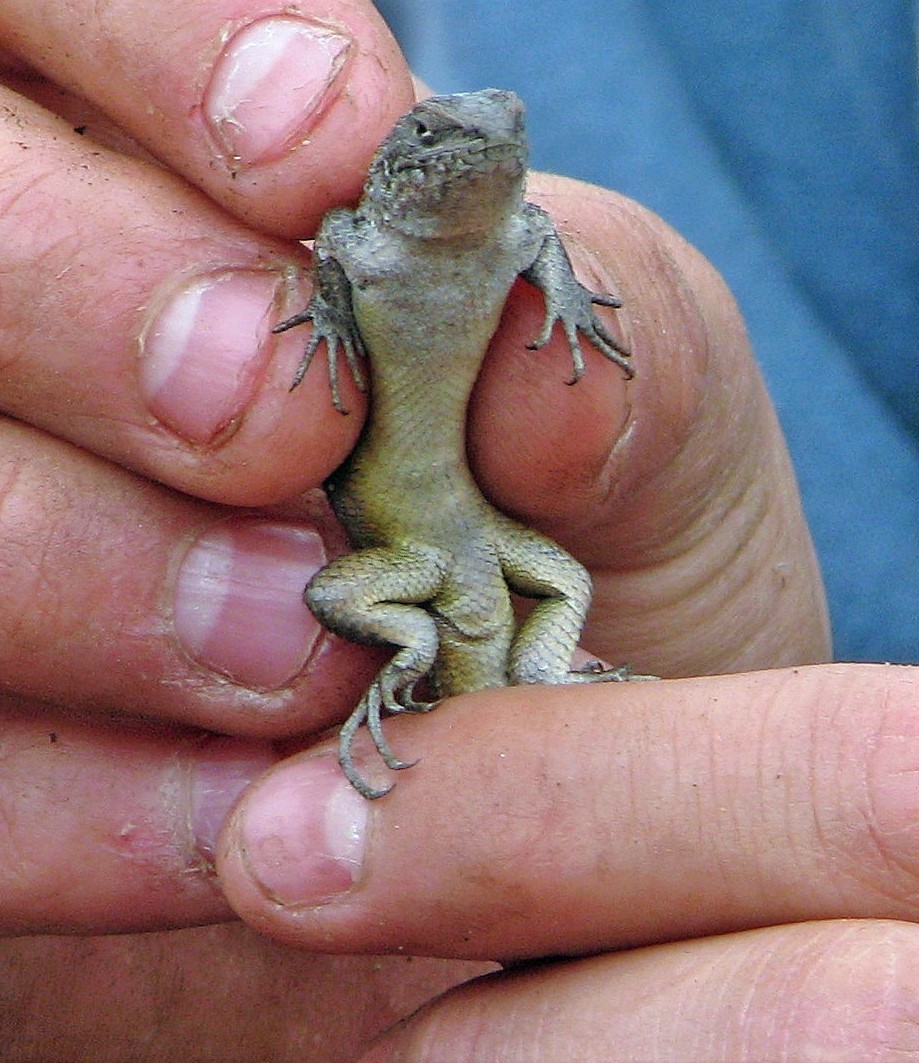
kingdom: Animalia
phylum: Chordata
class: Squamata
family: Liolaemidae
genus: Liolaemus
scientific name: Liolaemus balerion
